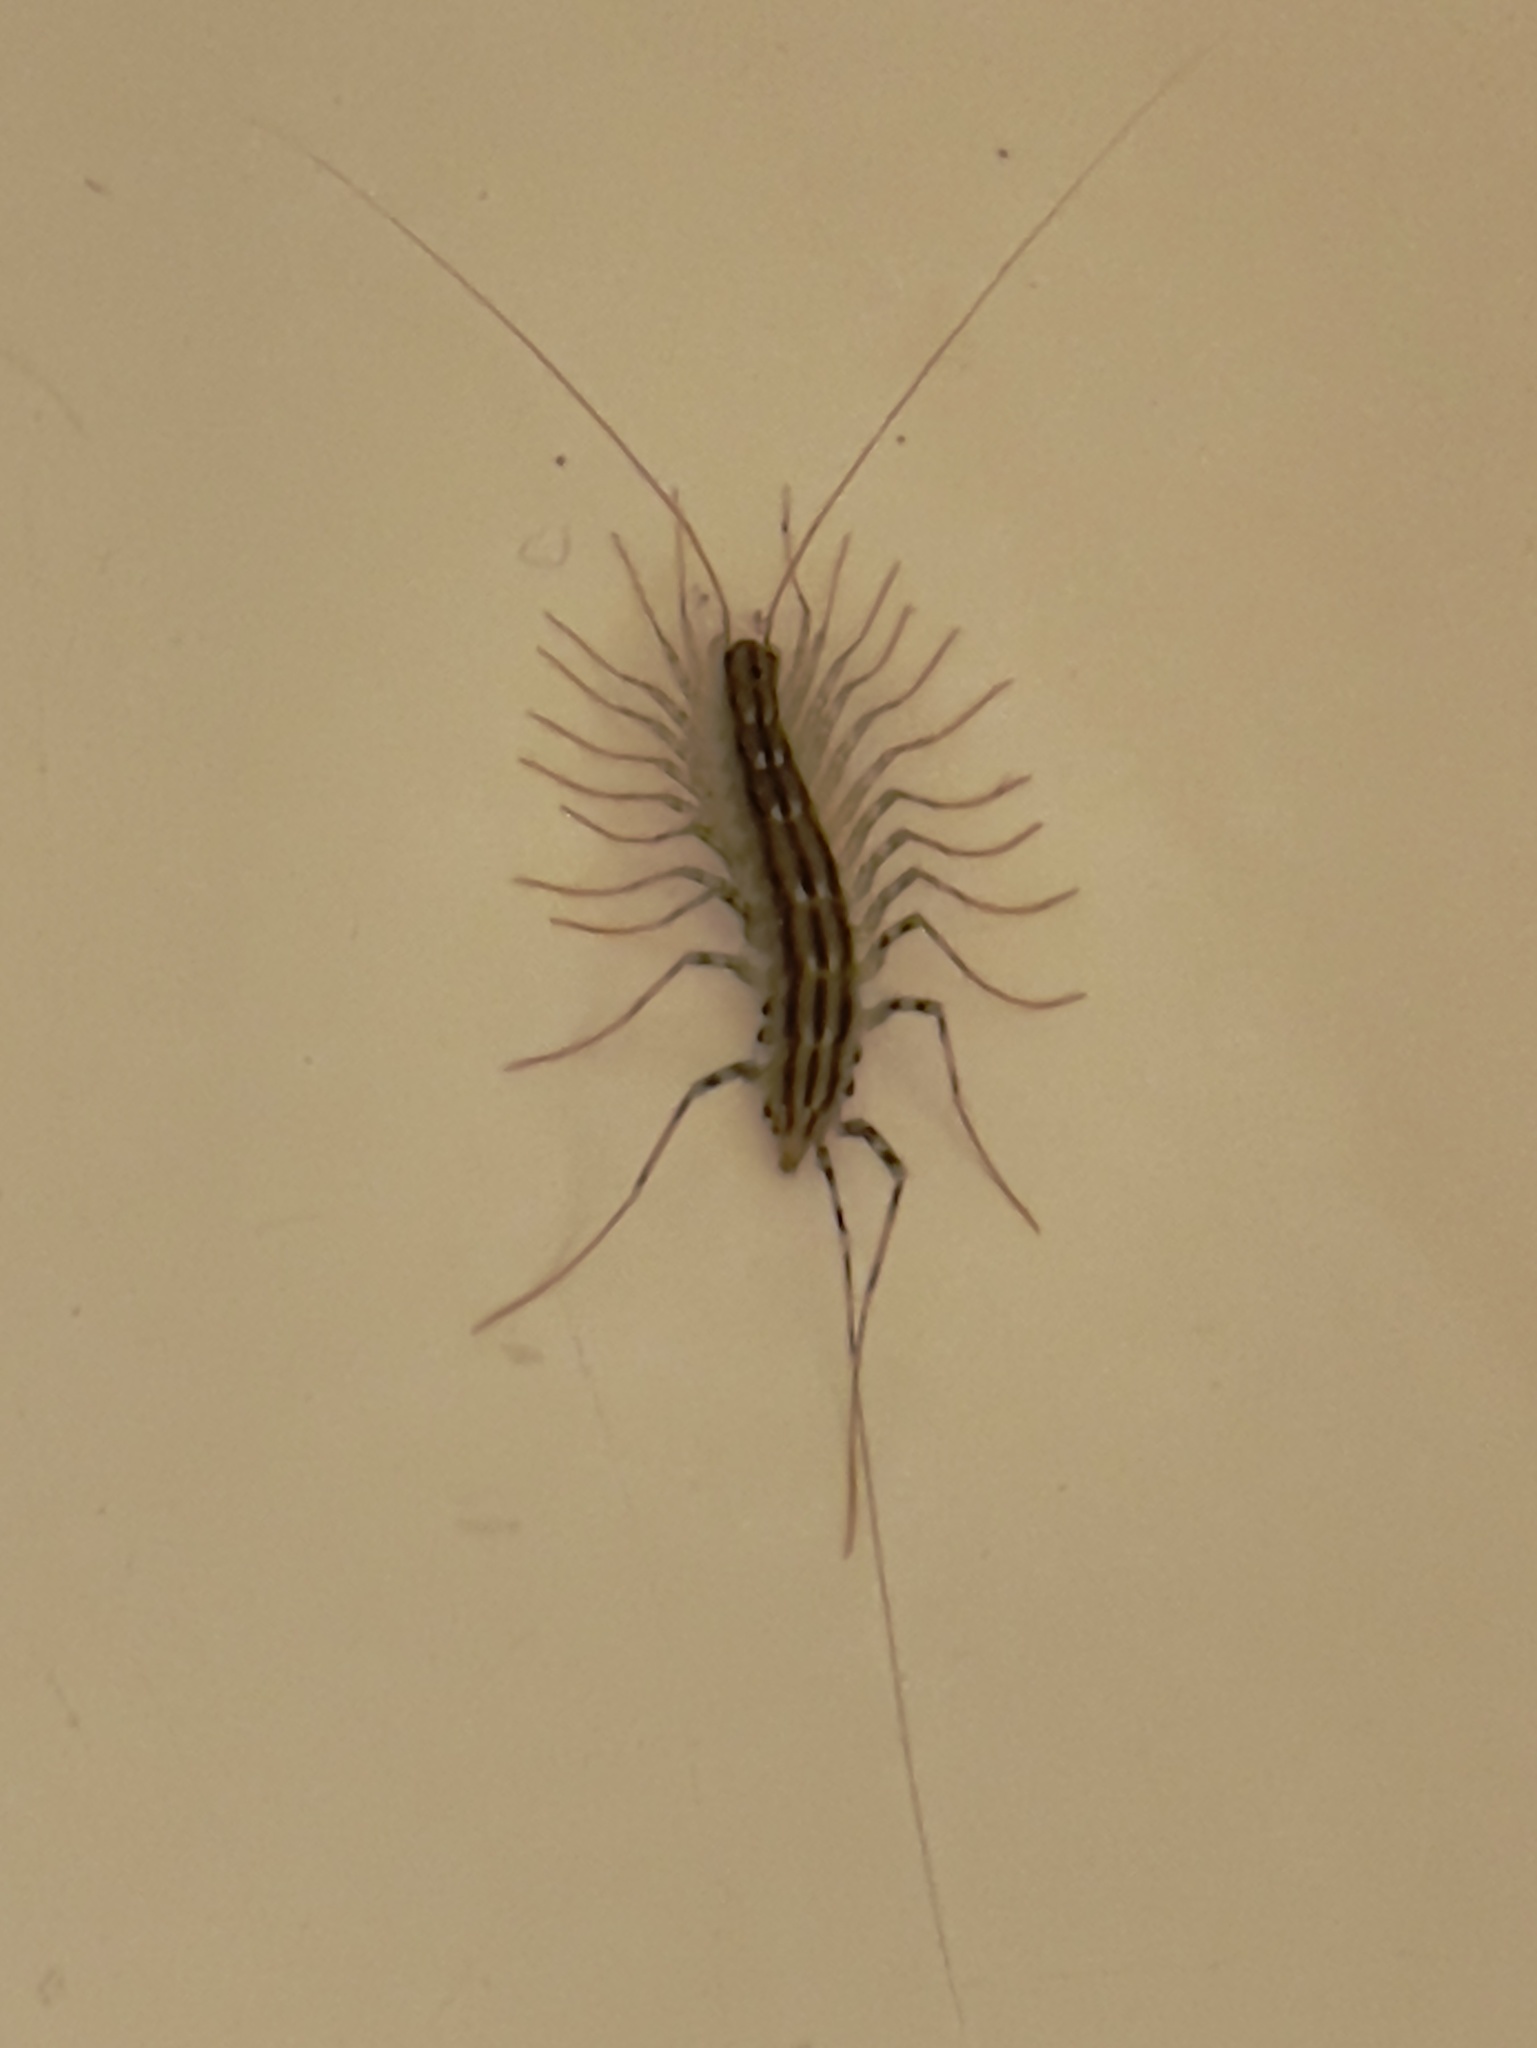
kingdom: Animalia
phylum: Arthropoda
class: Chilopoda
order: Scutigeromorpha
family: Scutigeridae
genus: Scutigera
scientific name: Scutigera coleoptrata
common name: House centipede
